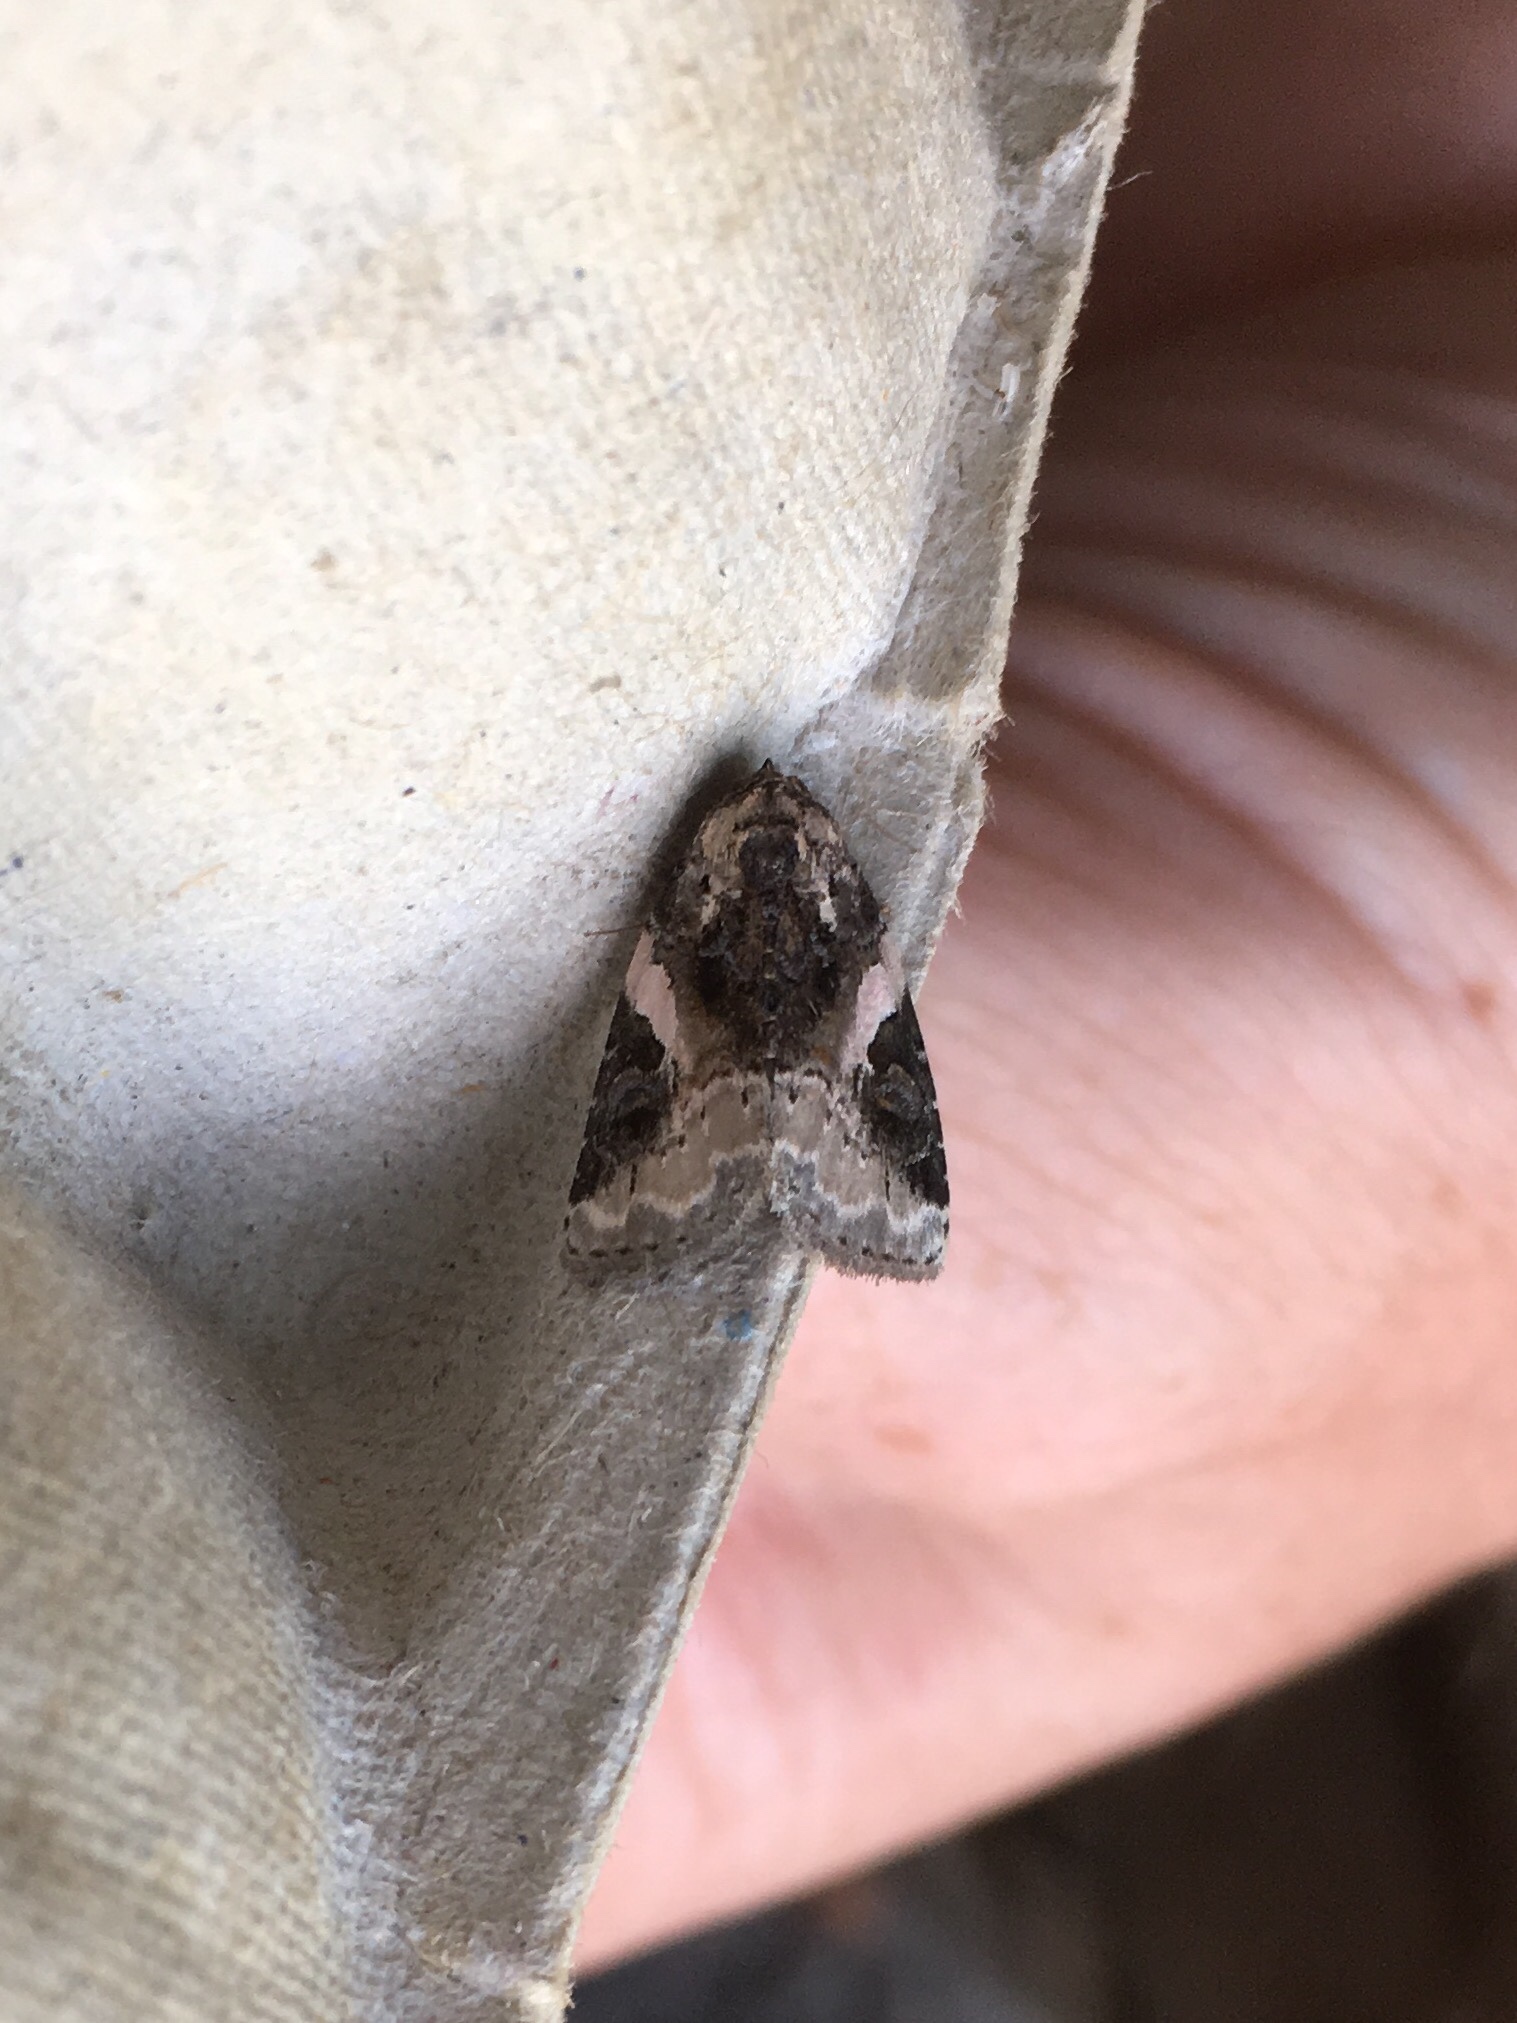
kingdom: Animalia
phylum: Arthropoda
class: Insecta
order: Lepidoptera
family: Noctuidae
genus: Pseudeustrotia
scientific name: Pseudeustrotia carneola
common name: Pink-barred lithacodia moth
